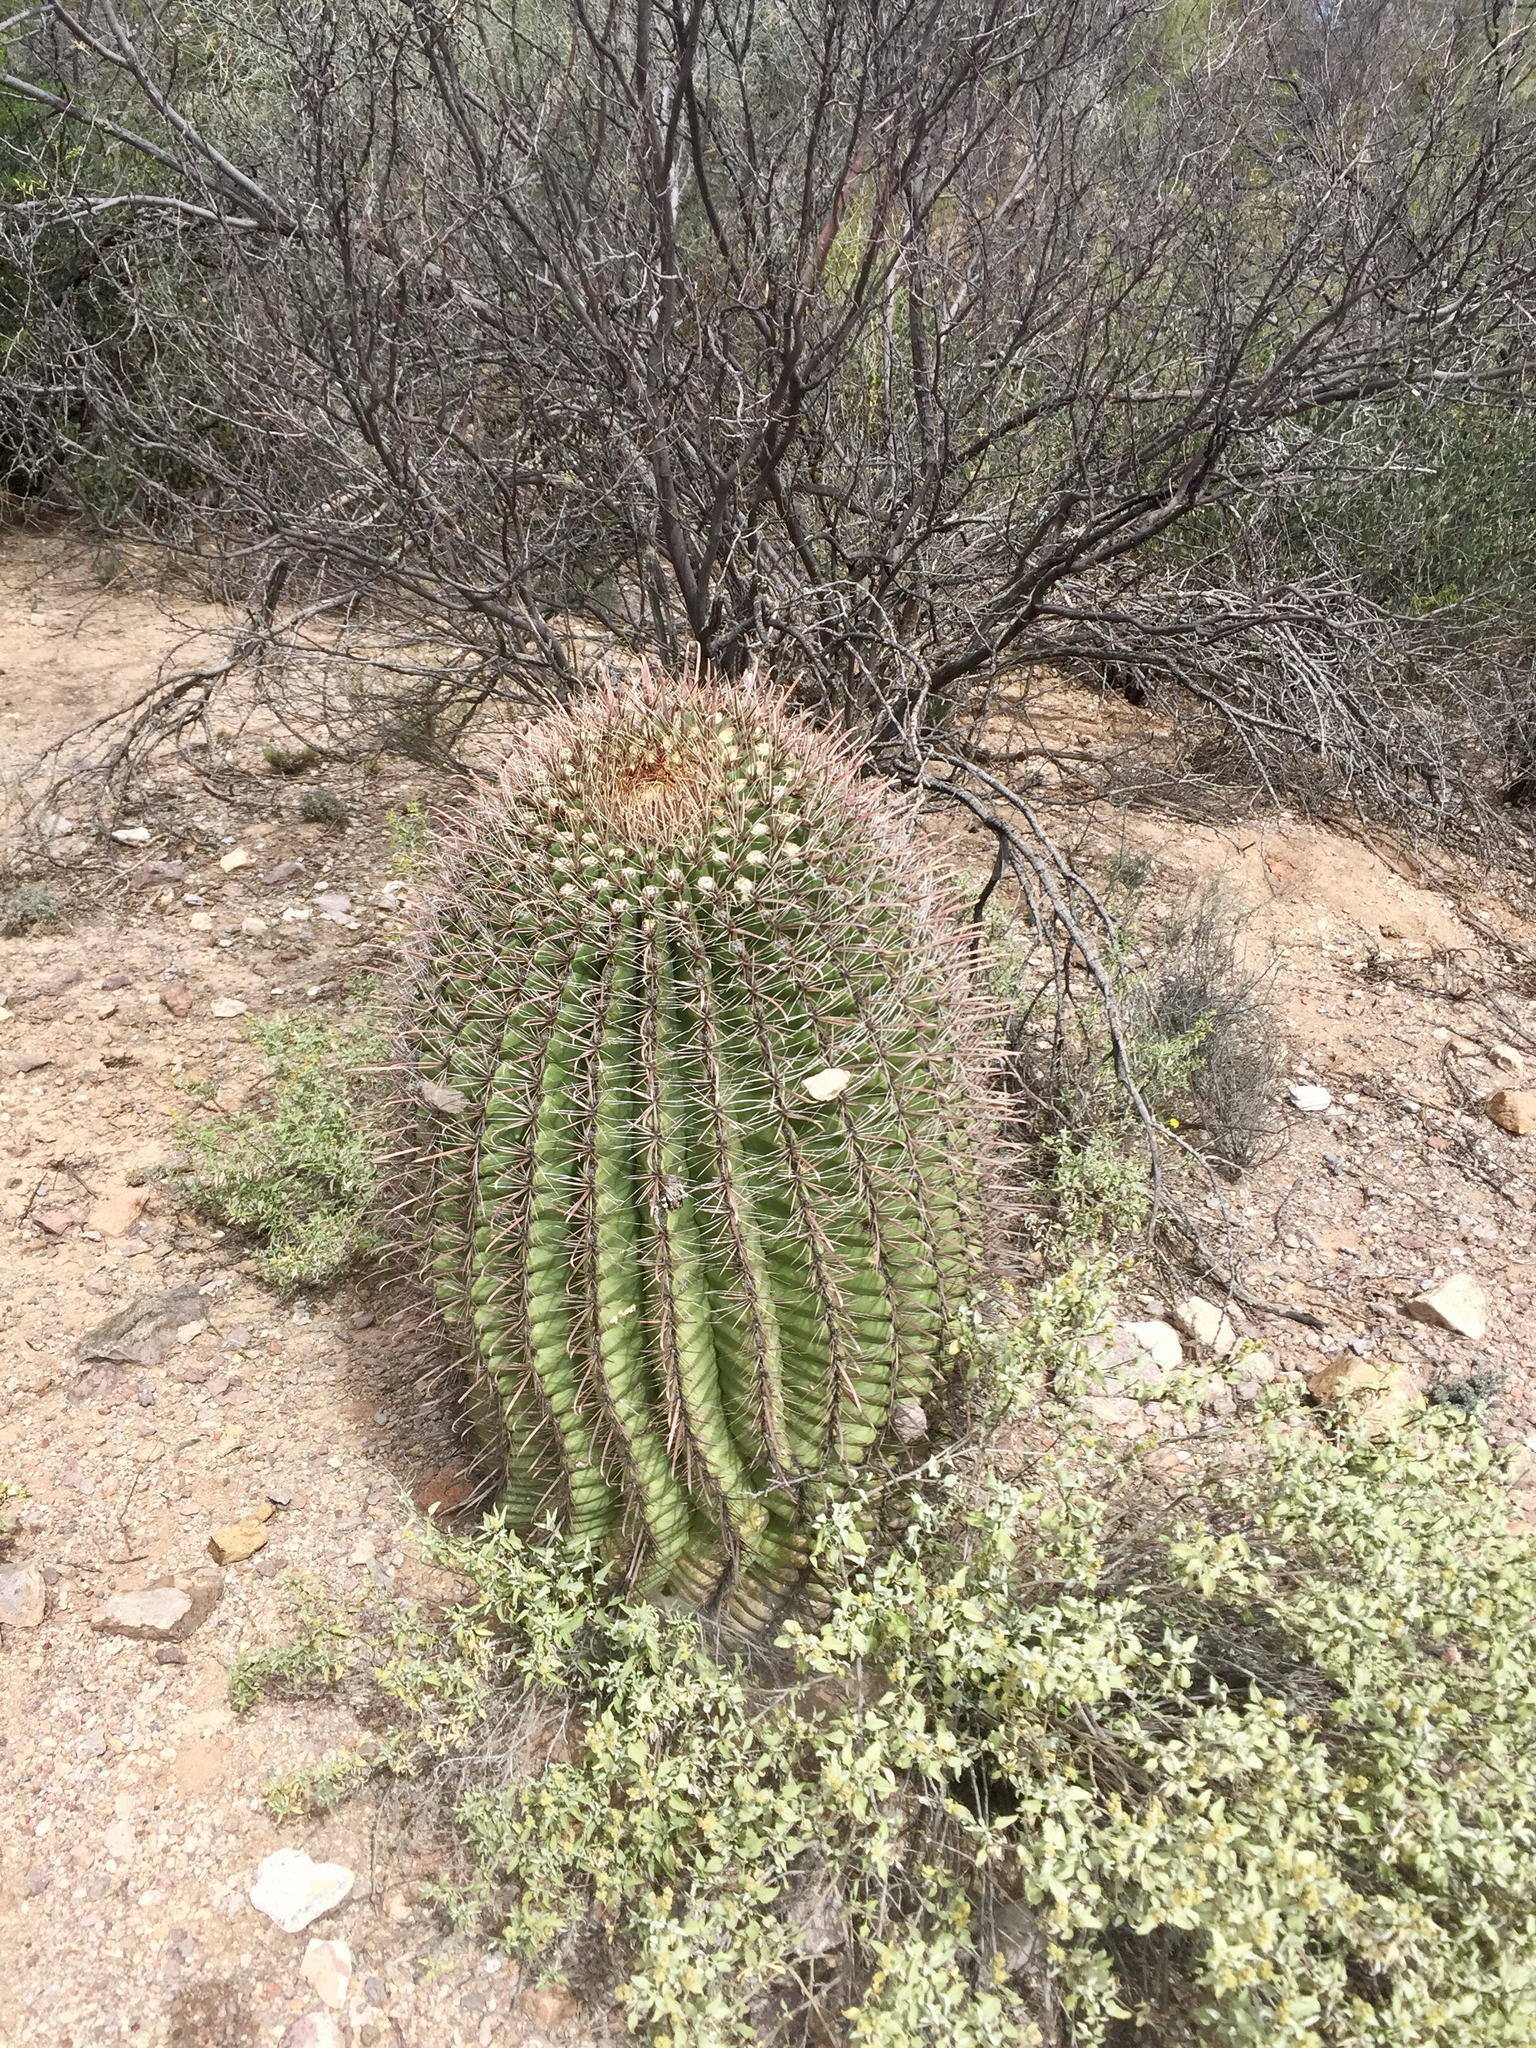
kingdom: Plantae
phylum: Tracheophyta
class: Magnoliopsida
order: Caryophyllales
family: Cactaceae
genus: Ferocactus
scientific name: Ferocactus wislizeni
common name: Candy barrel cactus
